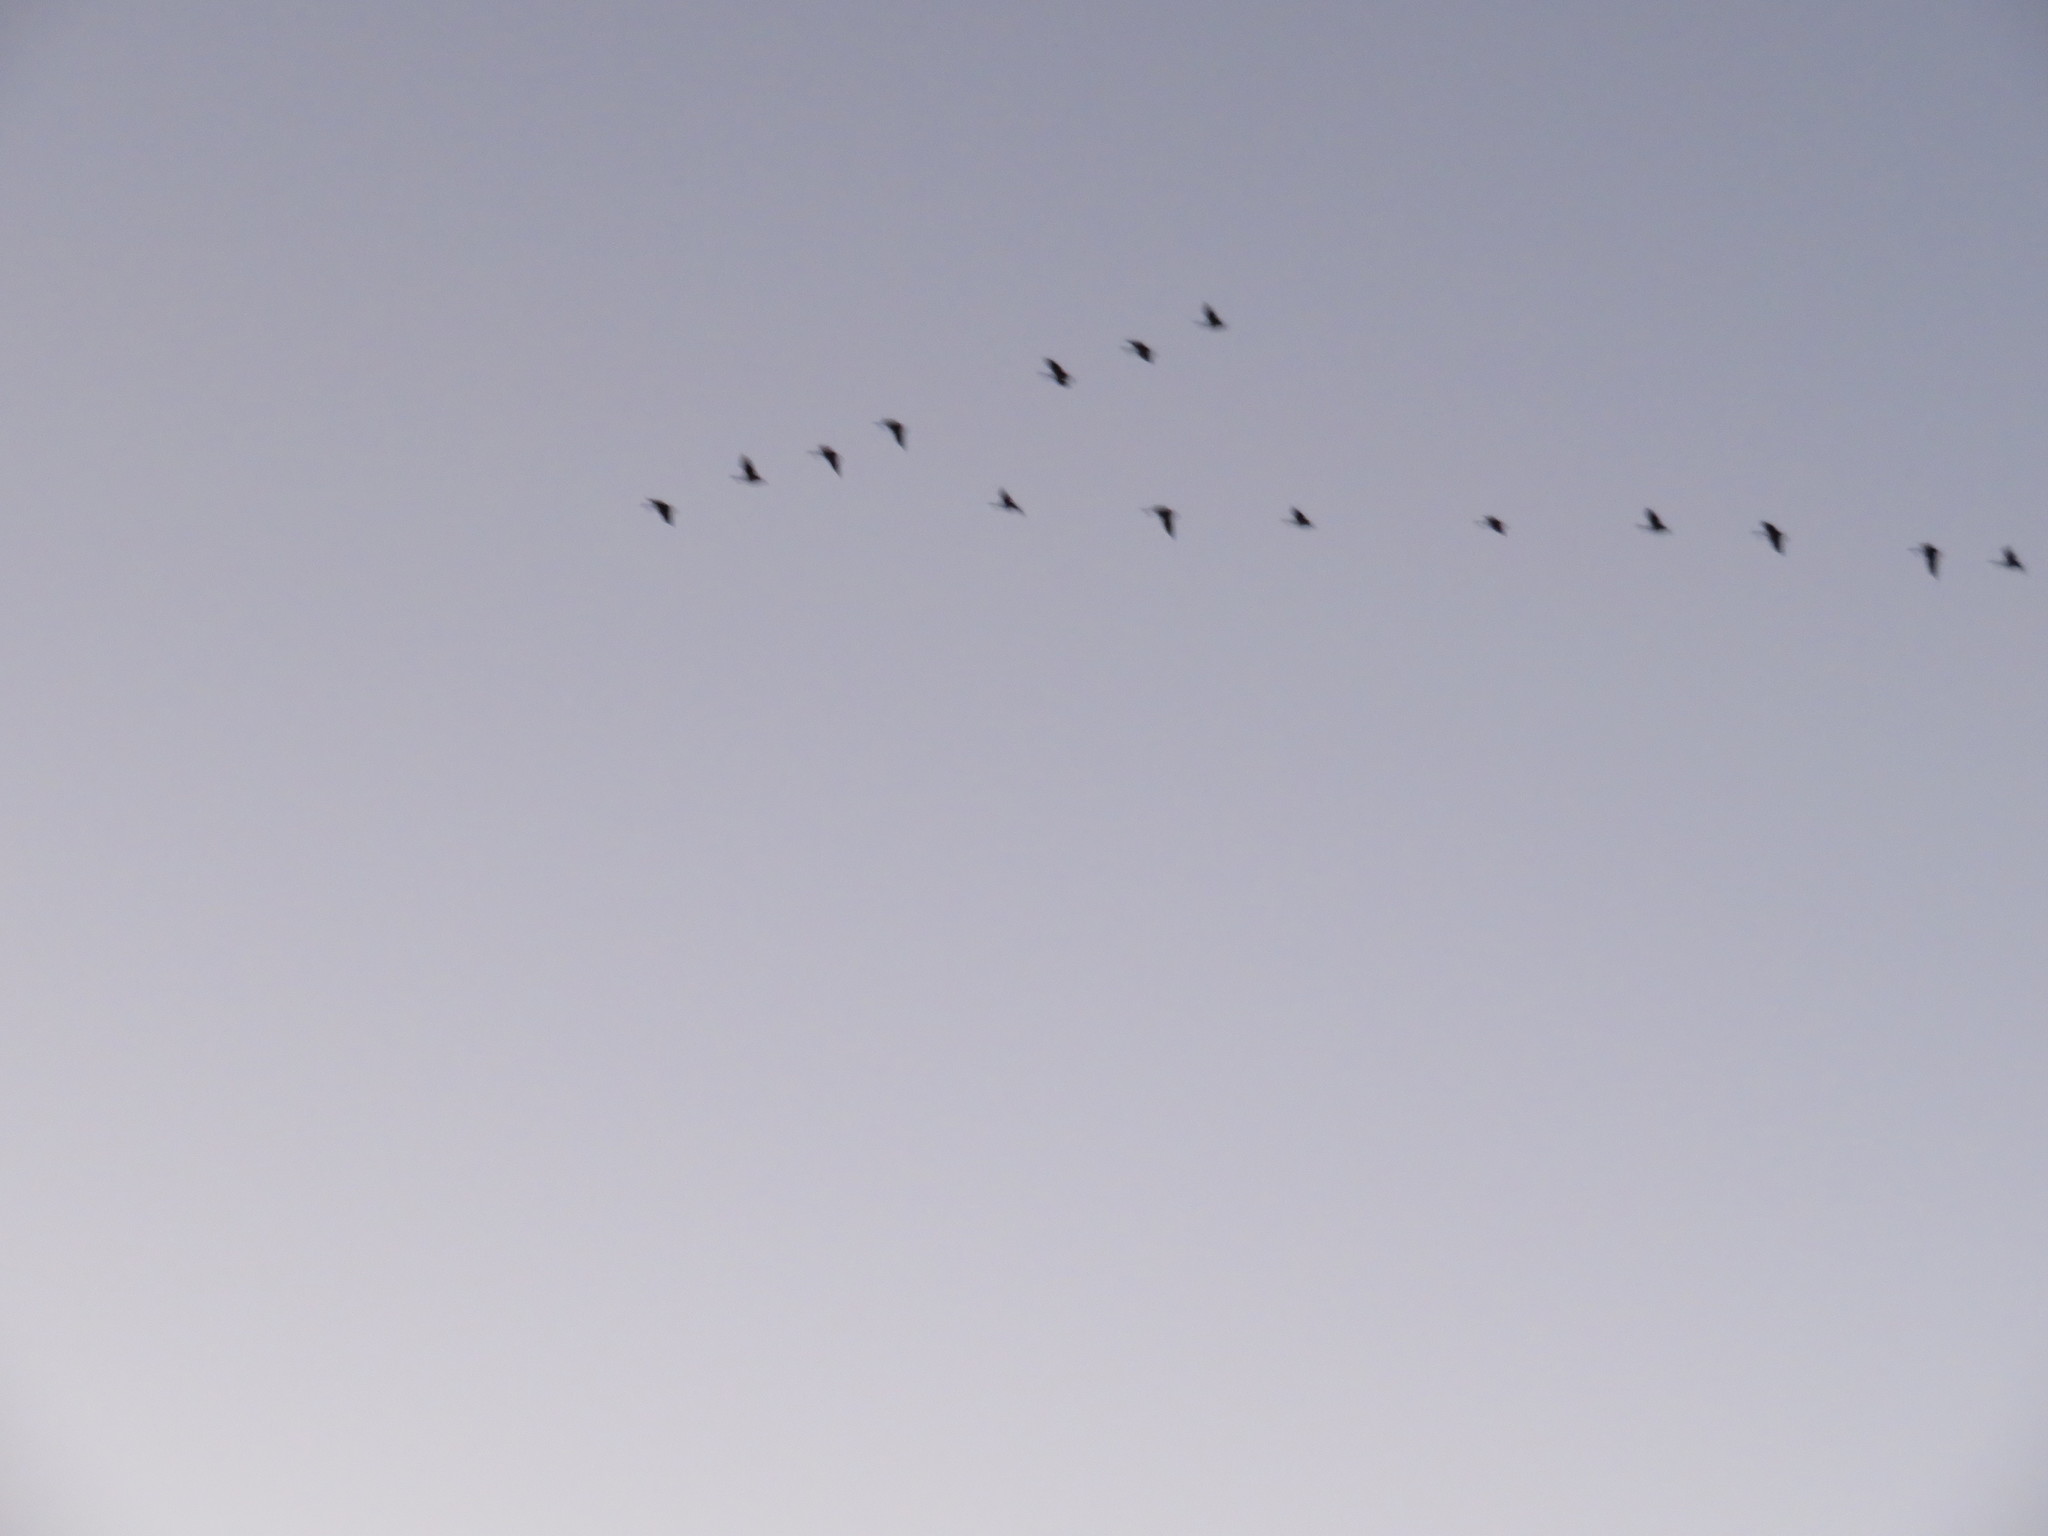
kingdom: Animalia
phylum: Chordata
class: Aves
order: Gruiformes
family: Gruidae
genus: Grus
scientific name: Grus canadensis
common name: Sandhill crane
